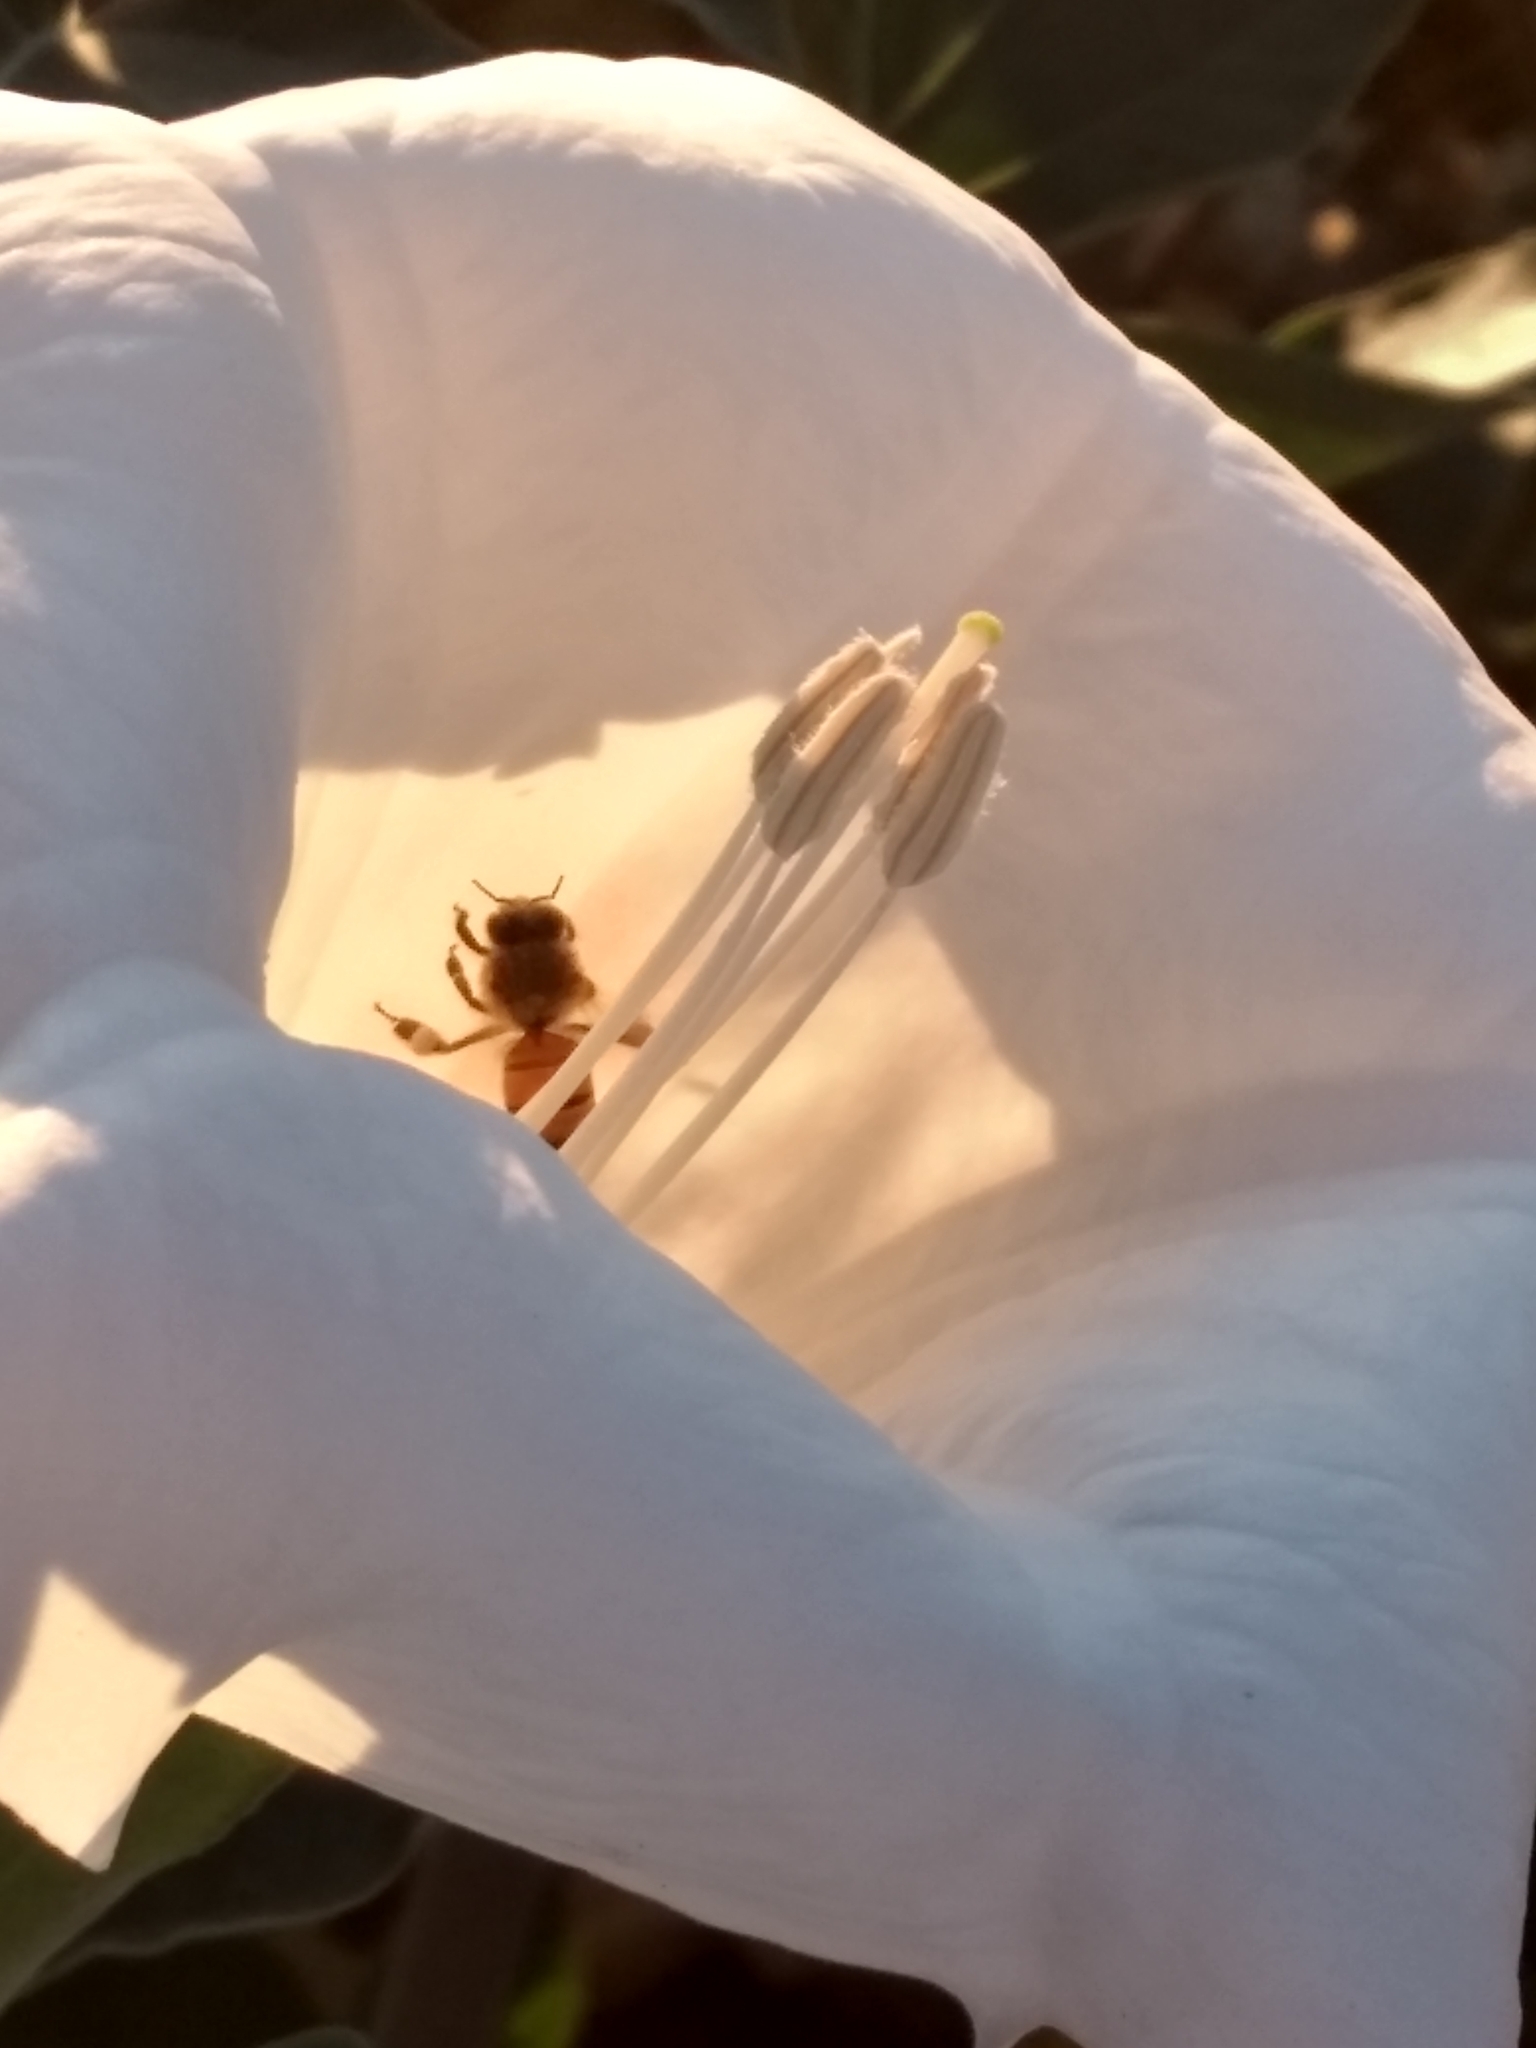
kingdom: Animalia
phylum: Arthropoda
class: Insecta
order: Hymenoptera
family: Apidae
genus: Apis
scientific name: Apis mellifera
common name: Honey bee
